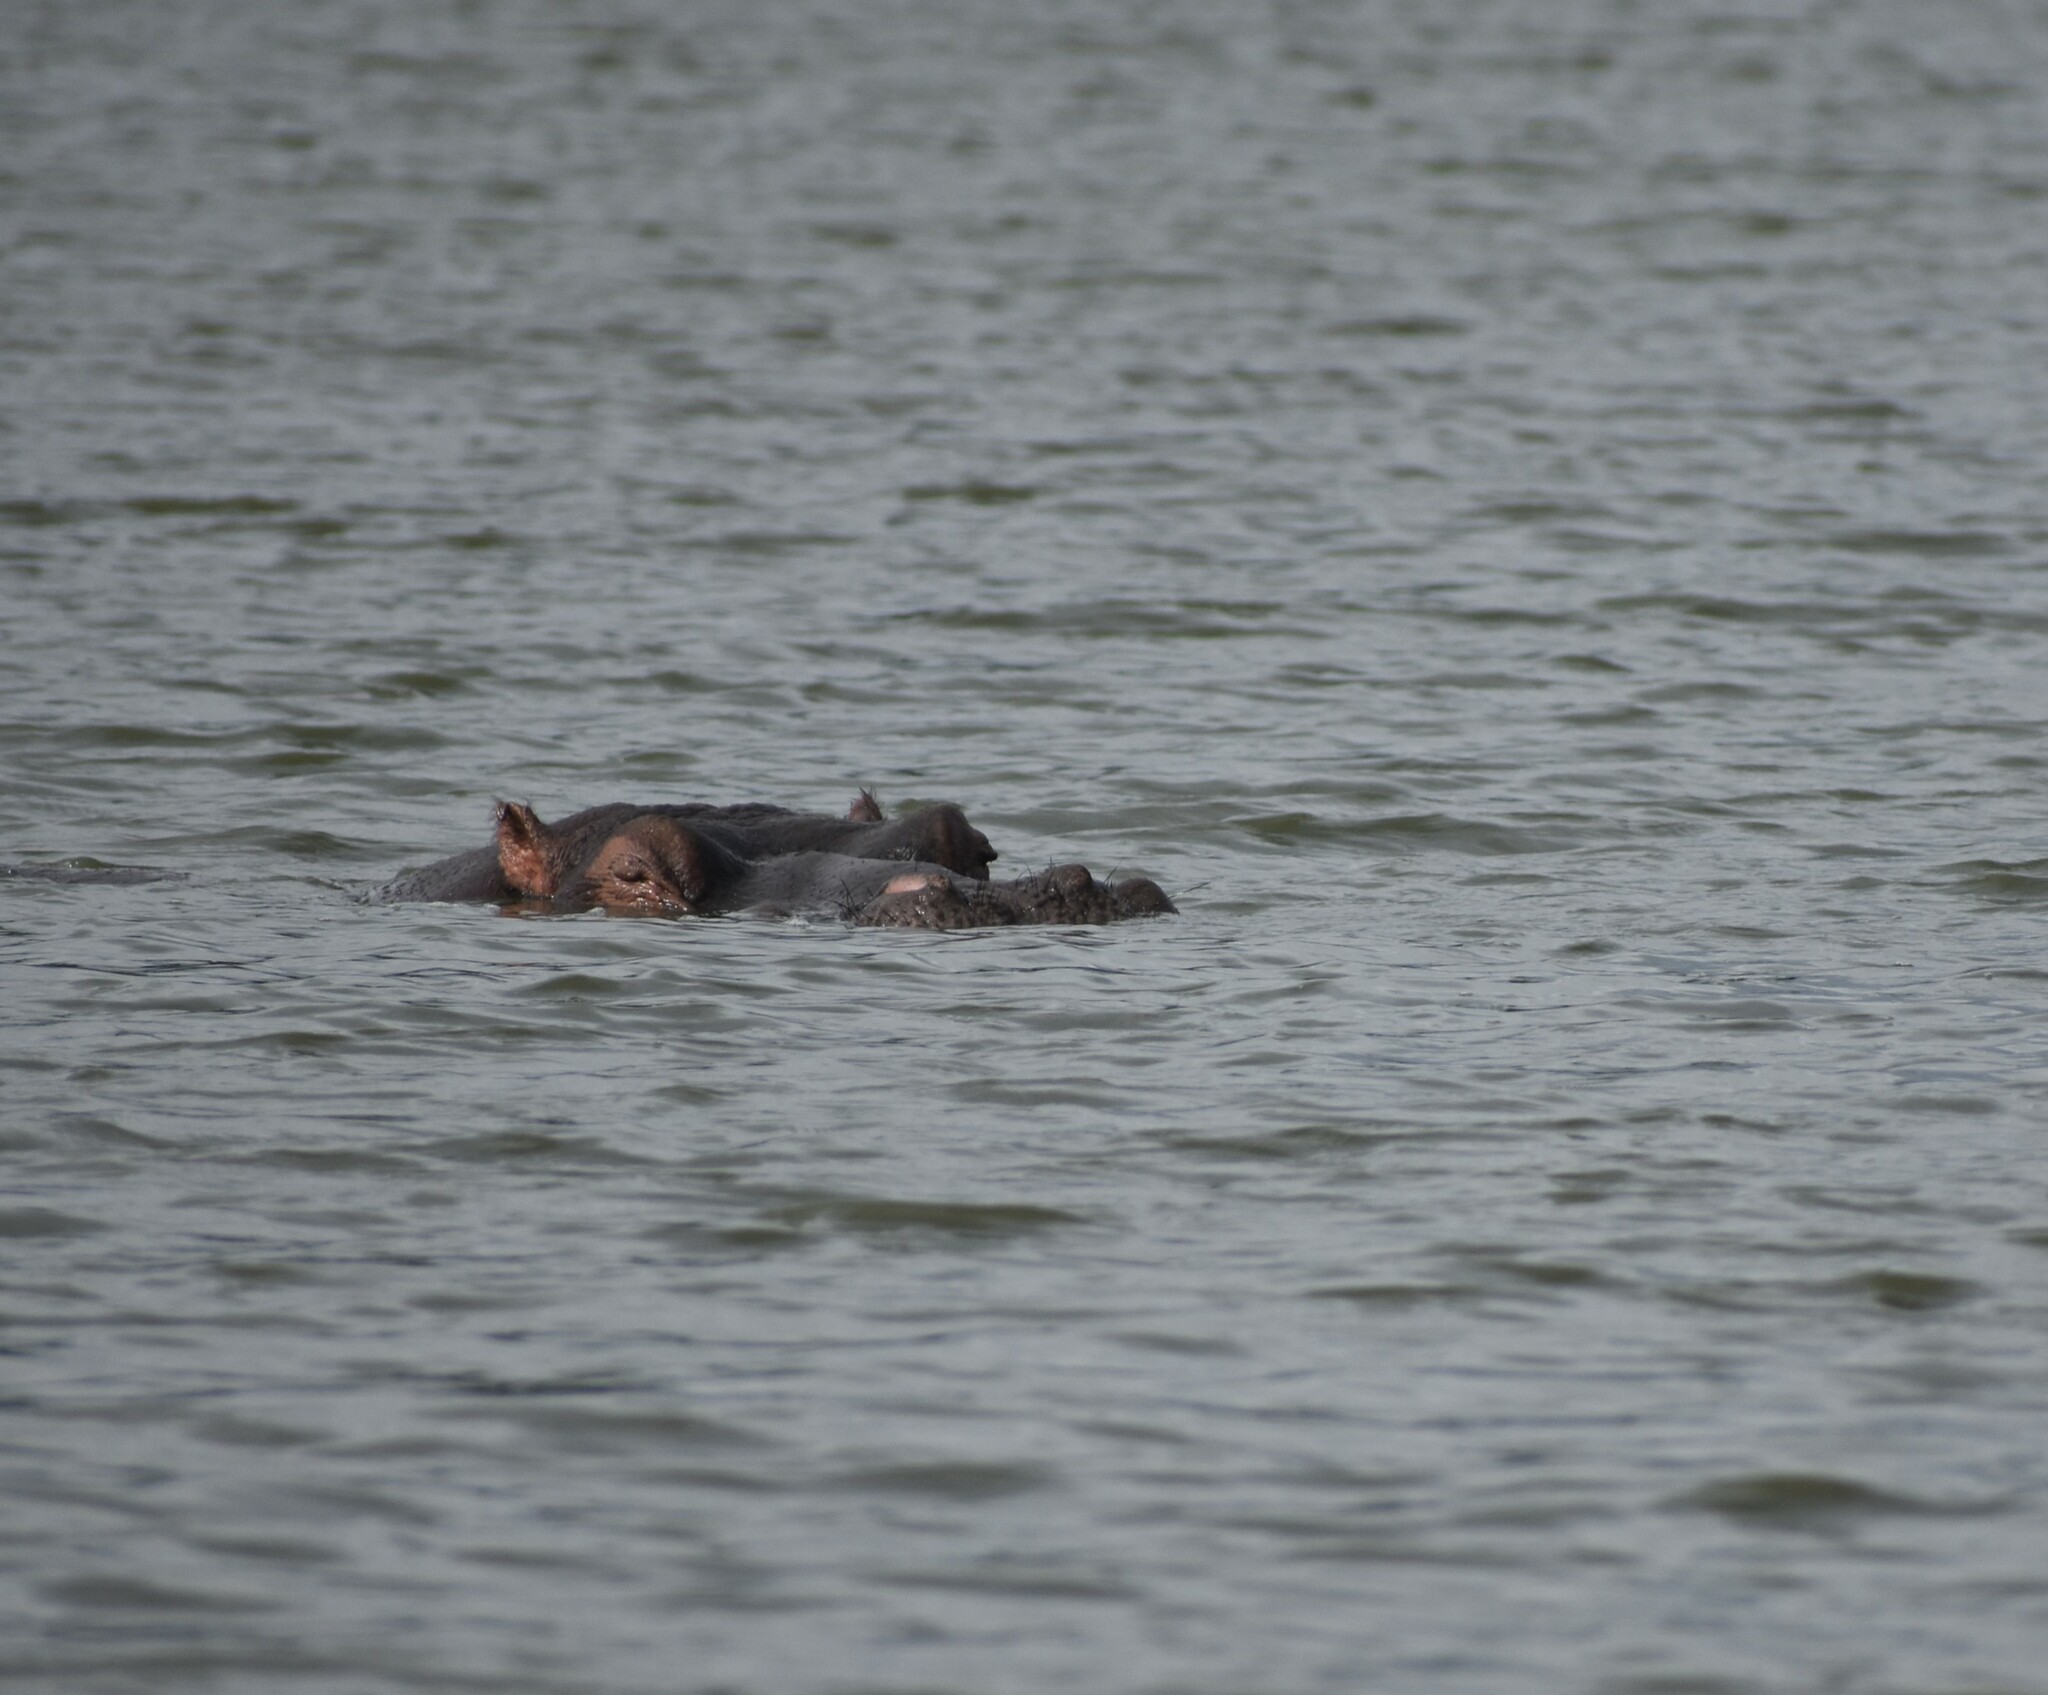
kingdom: Animalia
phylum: Chordata
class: Mammalia
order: Artiodactyla
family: Hippopotamidae
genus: Hippopotamus
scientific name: Hippopotamus amphibius
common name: Common hippopotamus
